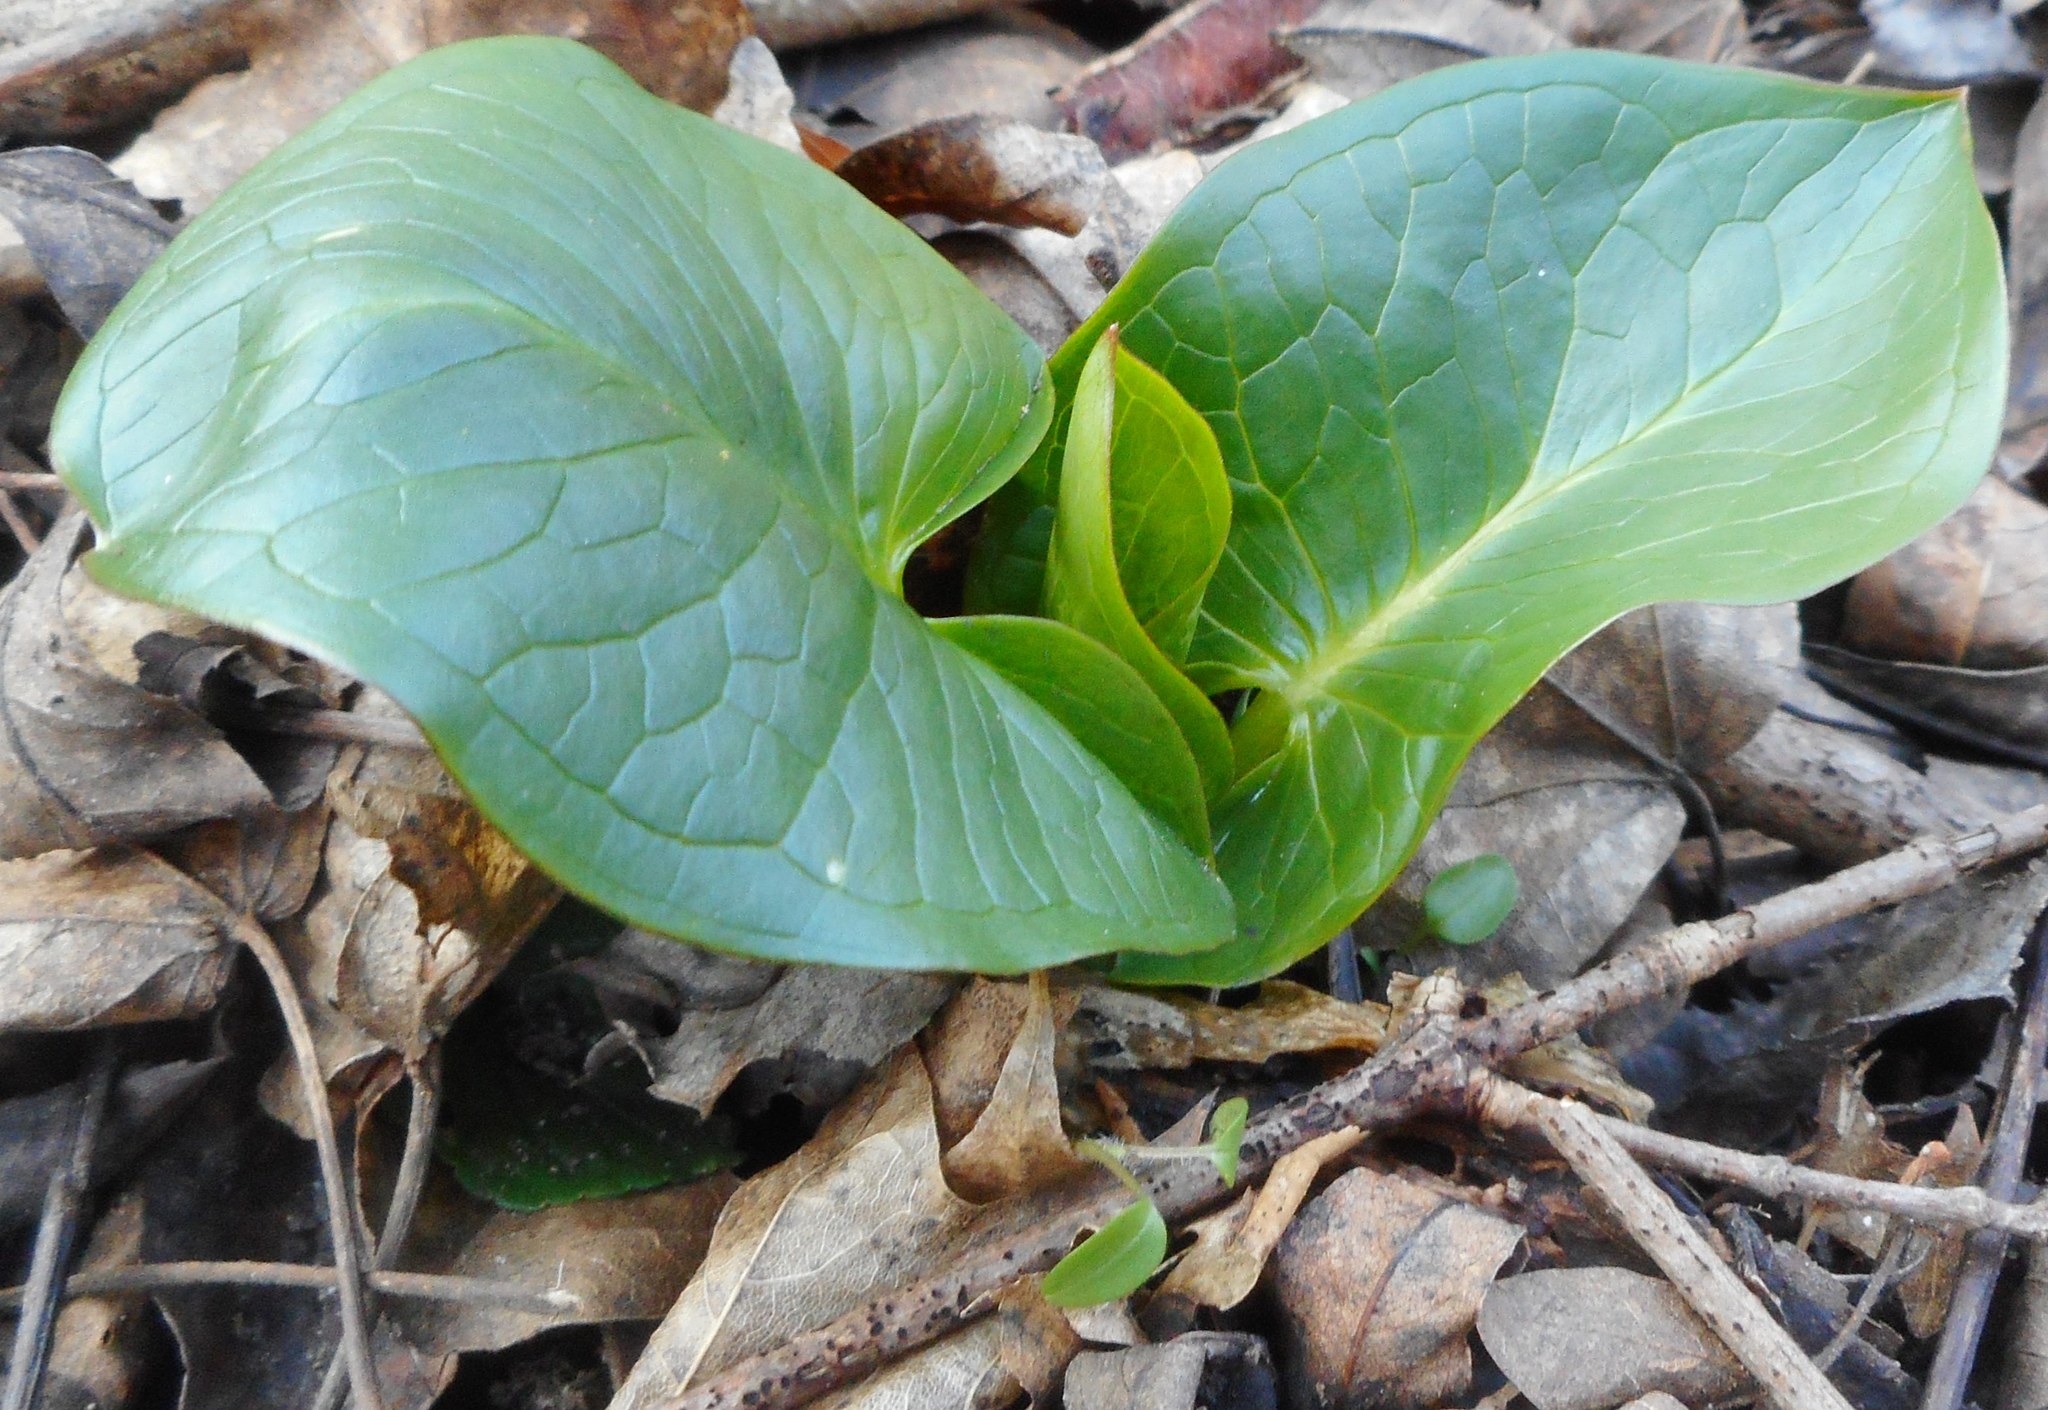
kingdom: Plantae
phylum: Tracheophyta
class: Liliopsida
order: Alismatales
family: Araceae
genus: Arum
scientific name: Arum cylindraceum
